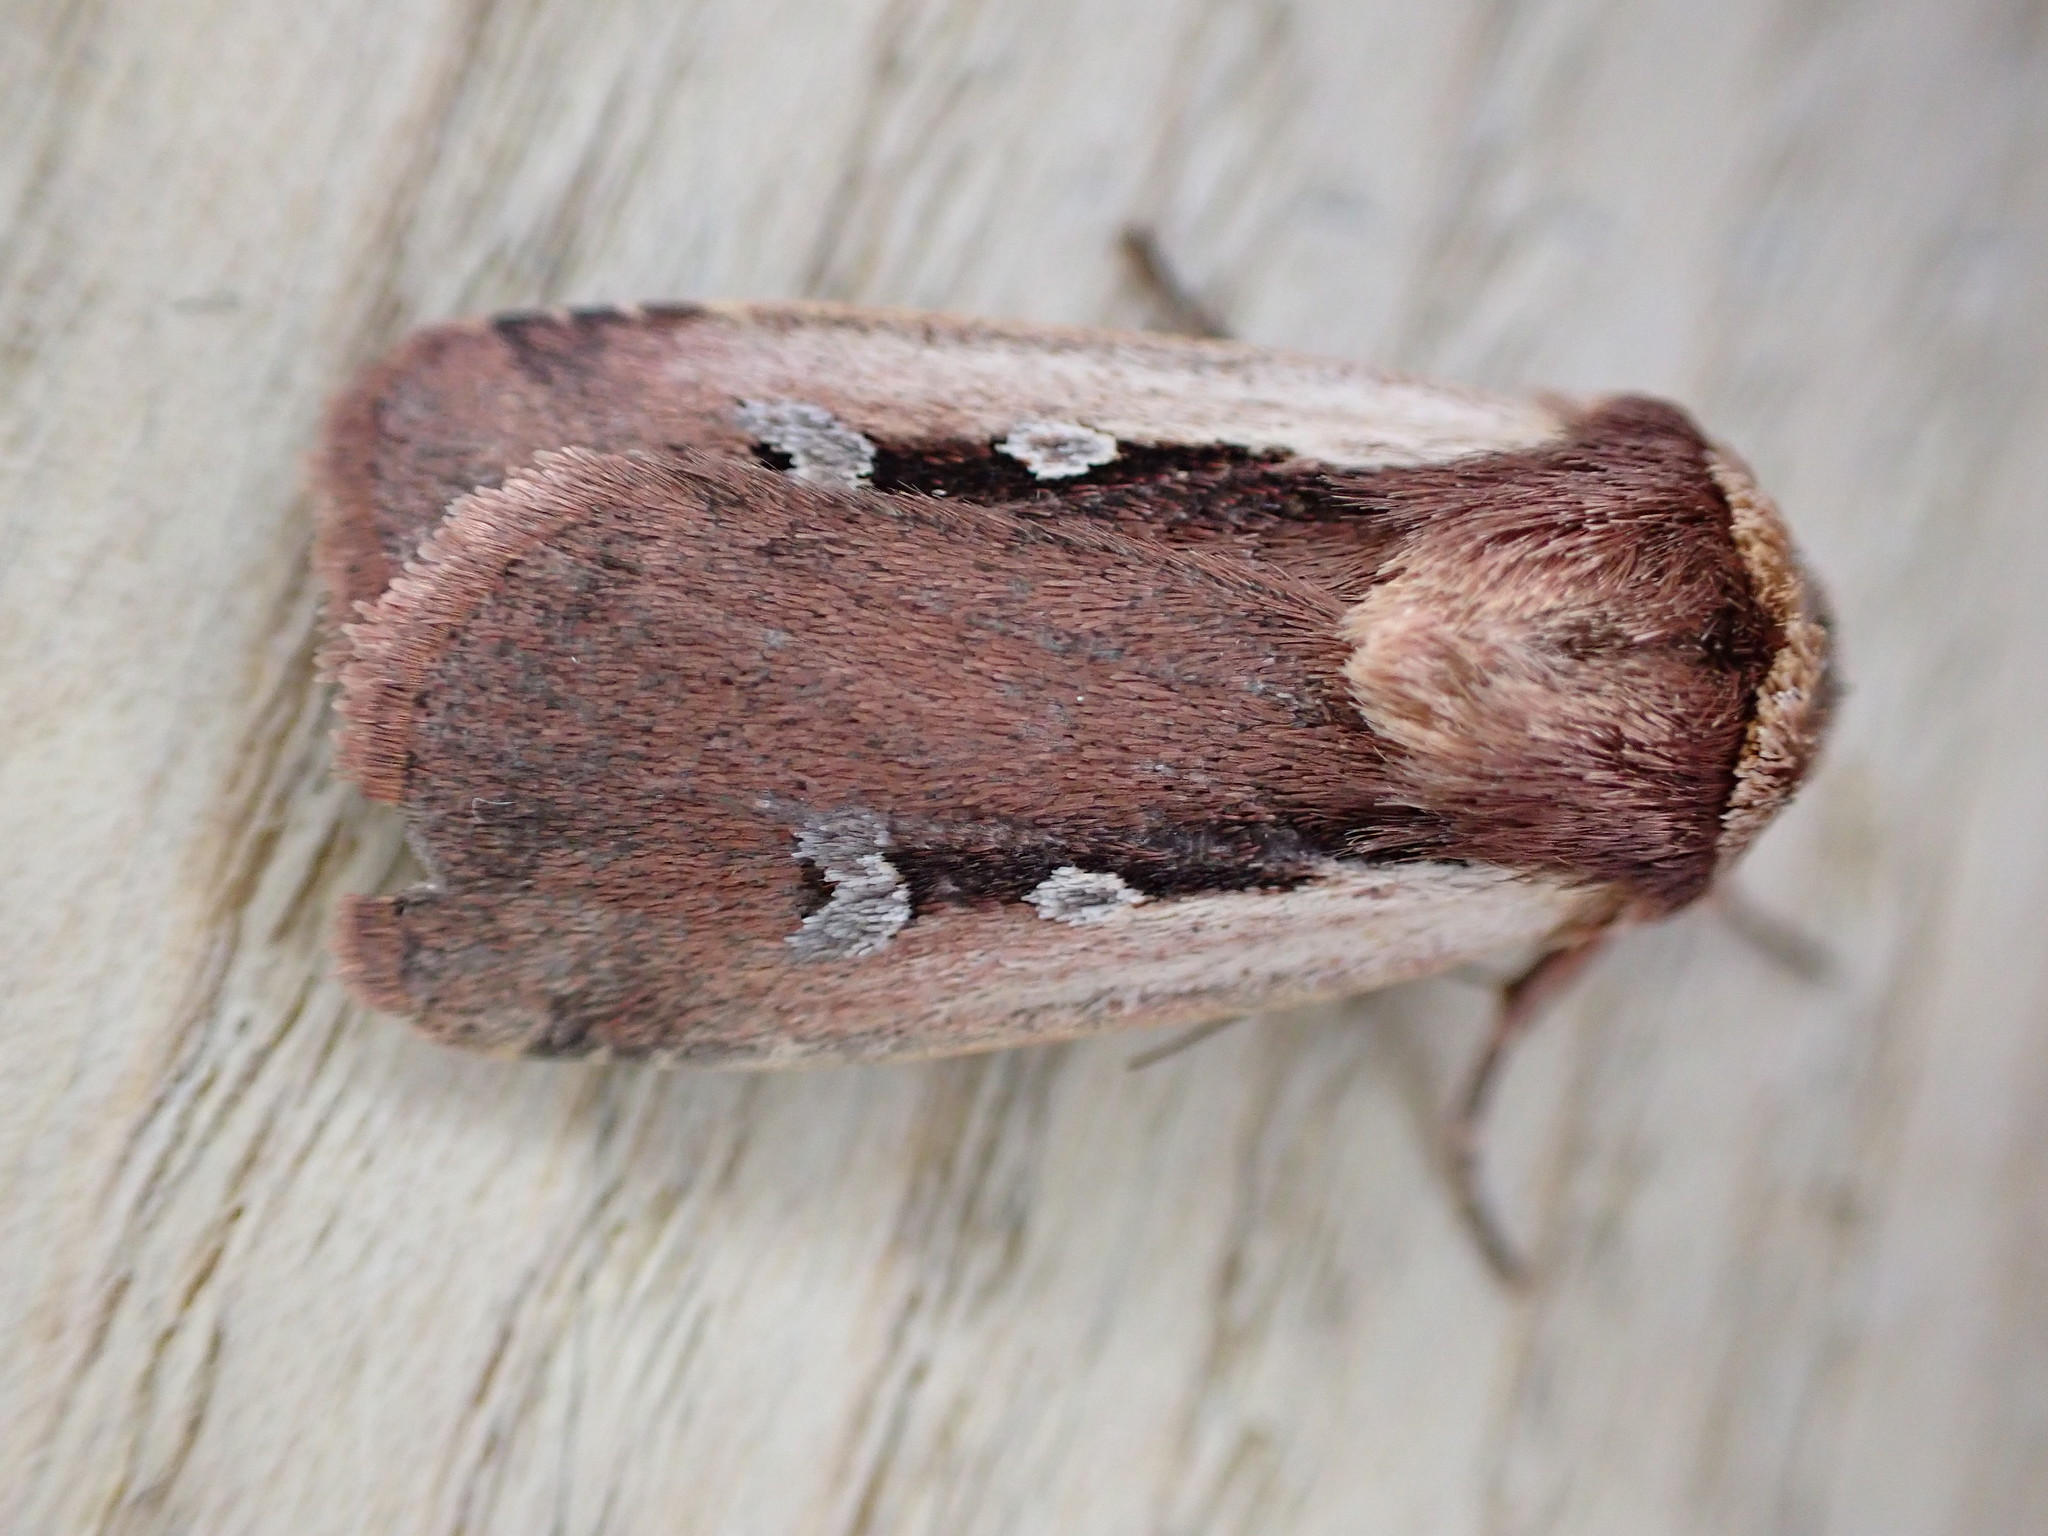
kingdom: Animalia
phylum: Arthropoda
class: Insecta
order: Lepidoptera
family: Noctuidae
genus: Ochropleura
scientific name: Ochropleura plecta
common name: Flame shoulder
